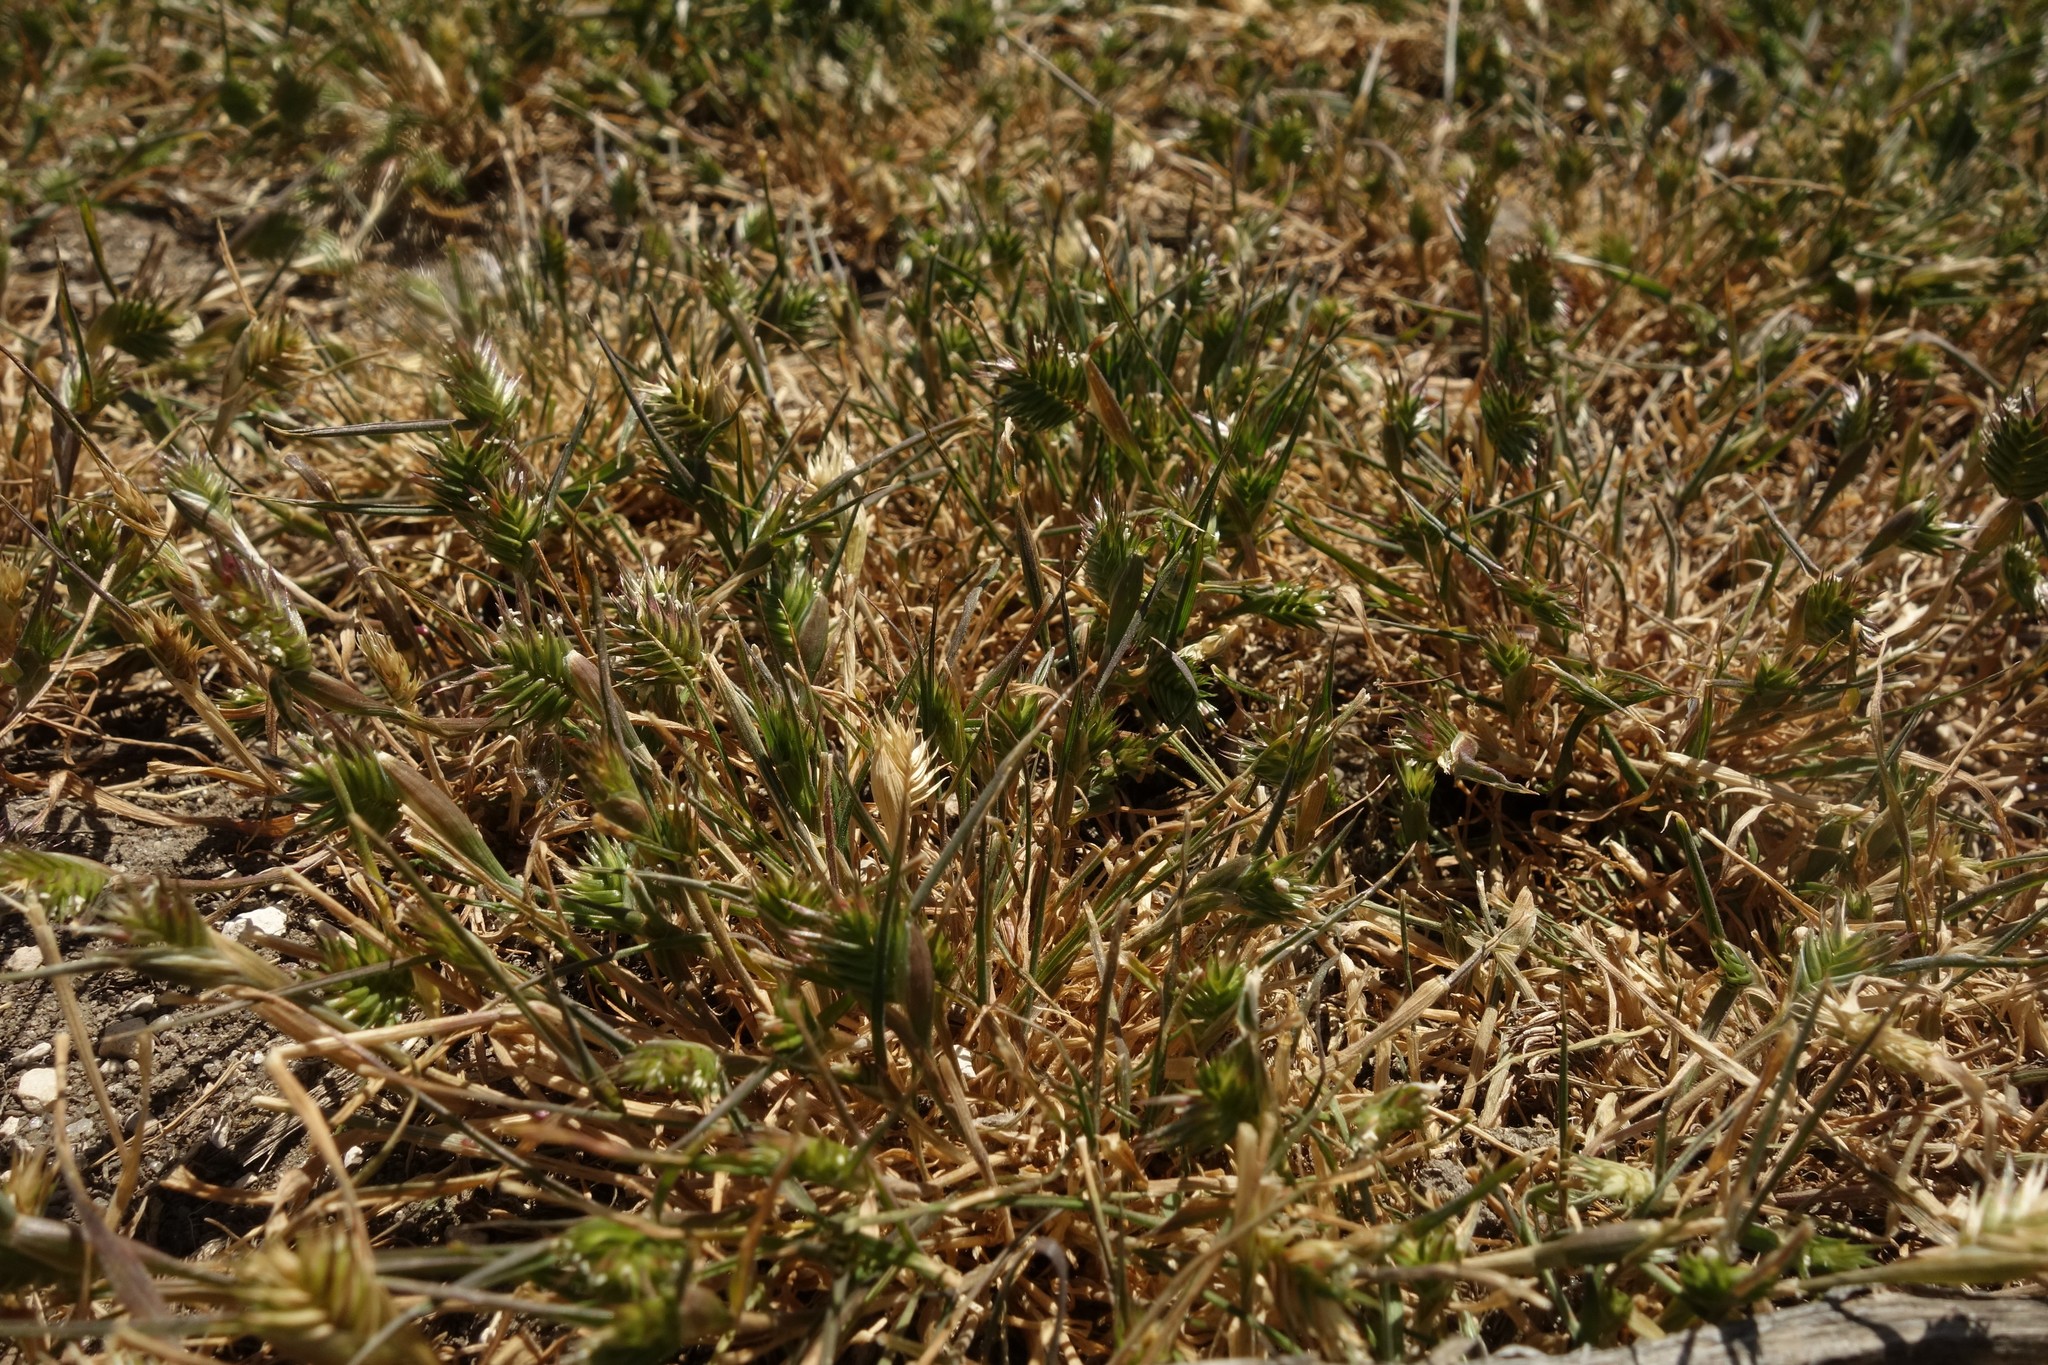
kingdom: Plantae
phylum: Tracheophyta
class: Liliopsida
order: Poales
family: Poaceae
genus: Eremopyrum
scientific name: Eremopyrum triticeum
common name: Annual wheatgrass
